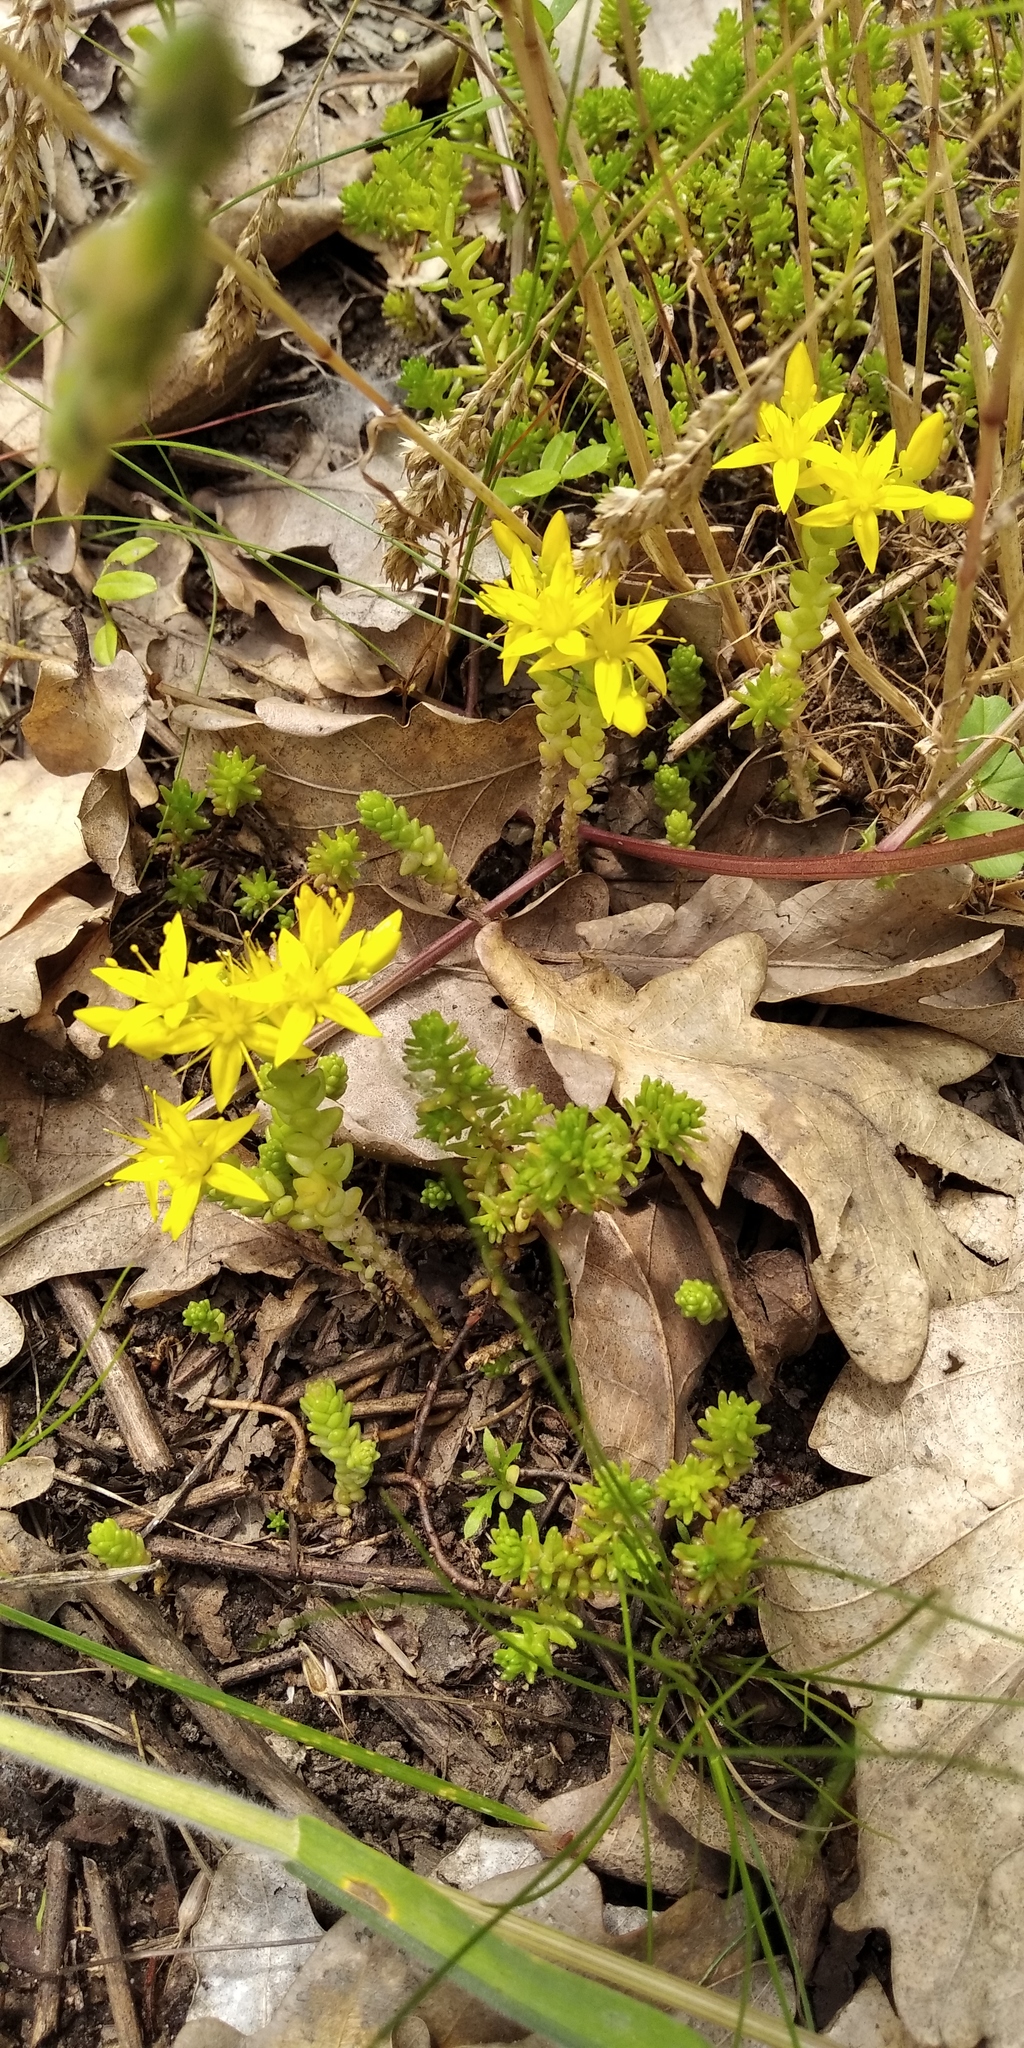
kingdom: Plantae
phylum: Tracheophyta
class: Magnoliopsida
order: Saxifragales
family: Crassulaceae
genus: Sedum
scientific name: Sedum acre
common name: Biting stonecrop
